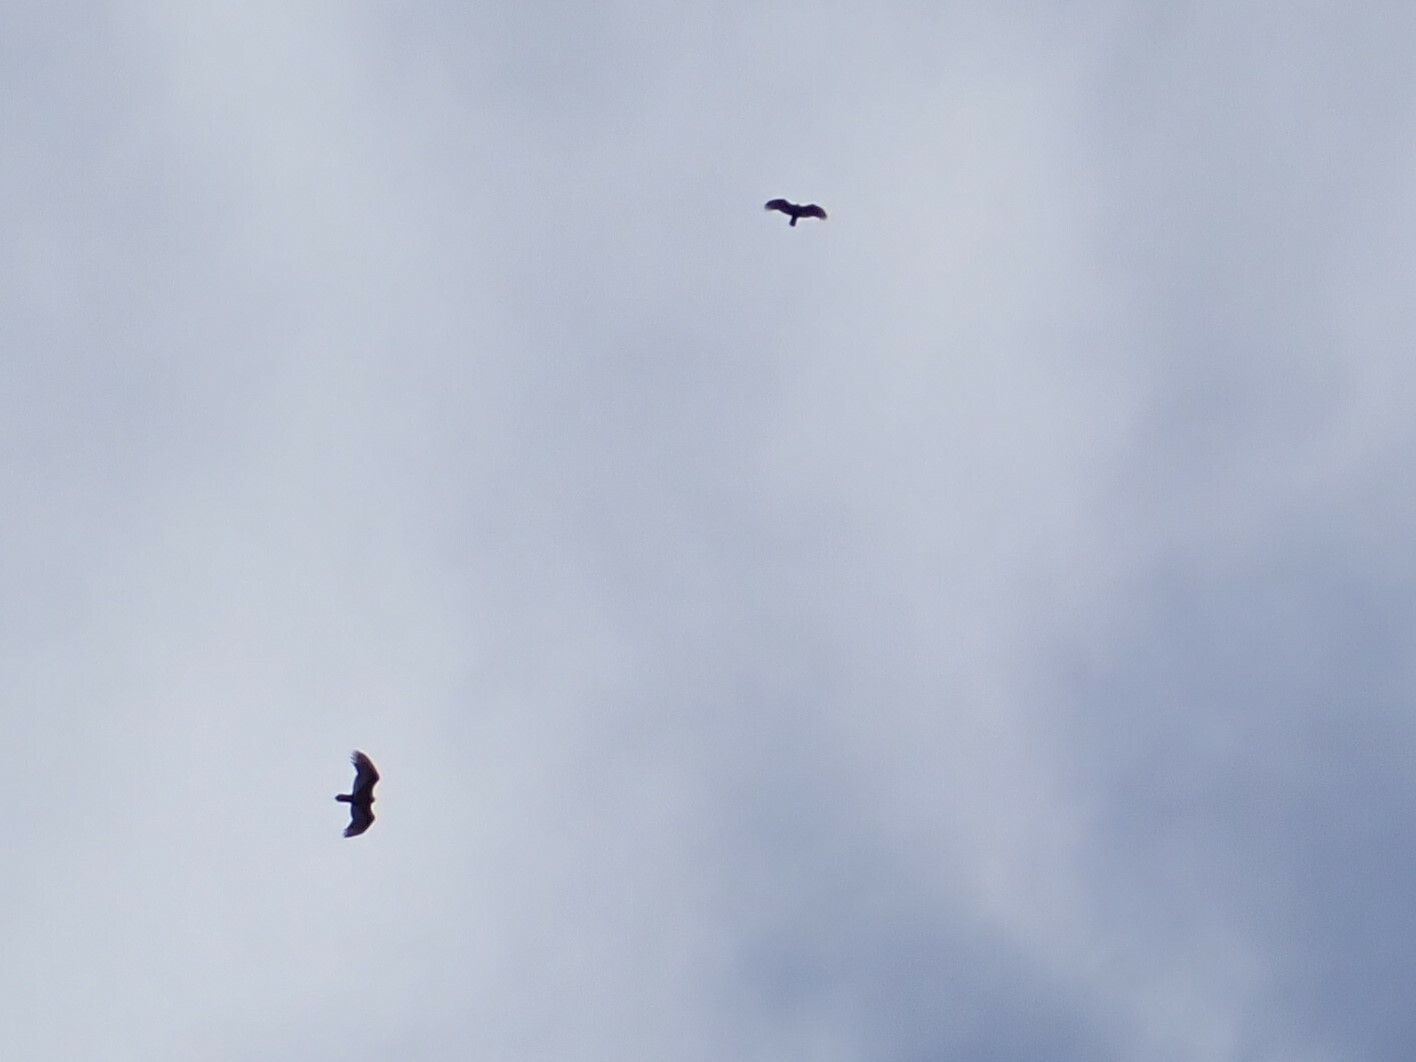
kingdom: Animalia
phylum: Chordata
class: Aves
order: Accipitriformes
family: Cathartidae
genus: Cathartes
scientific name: Cathartes aura
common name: Turkey vulture
